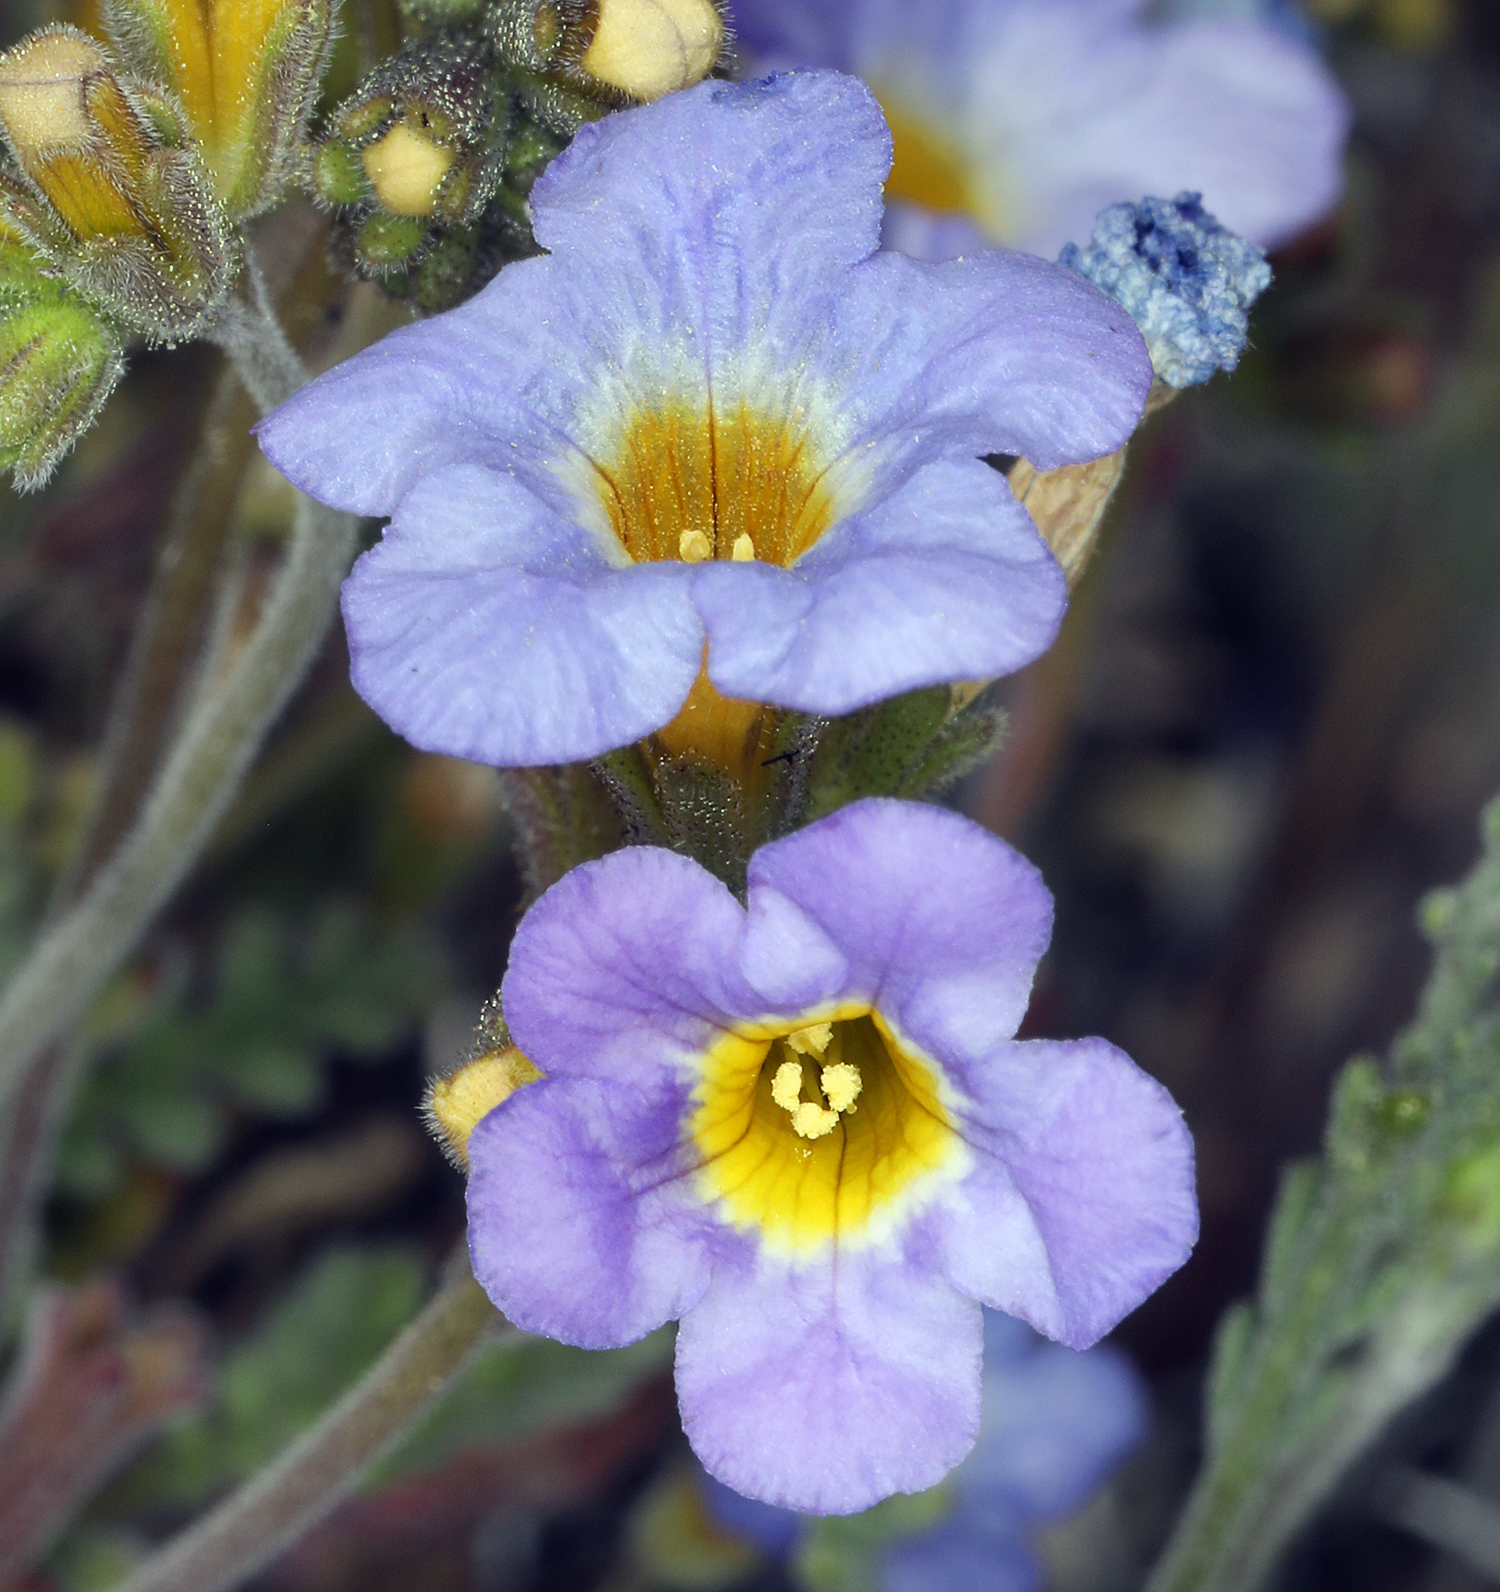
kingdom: Plantae
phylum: Tracheophyta
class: Magnoliopsida
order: Boraginales
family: Hydrophyllaceae
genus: Phacelia
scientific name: Phacelia fremontii
